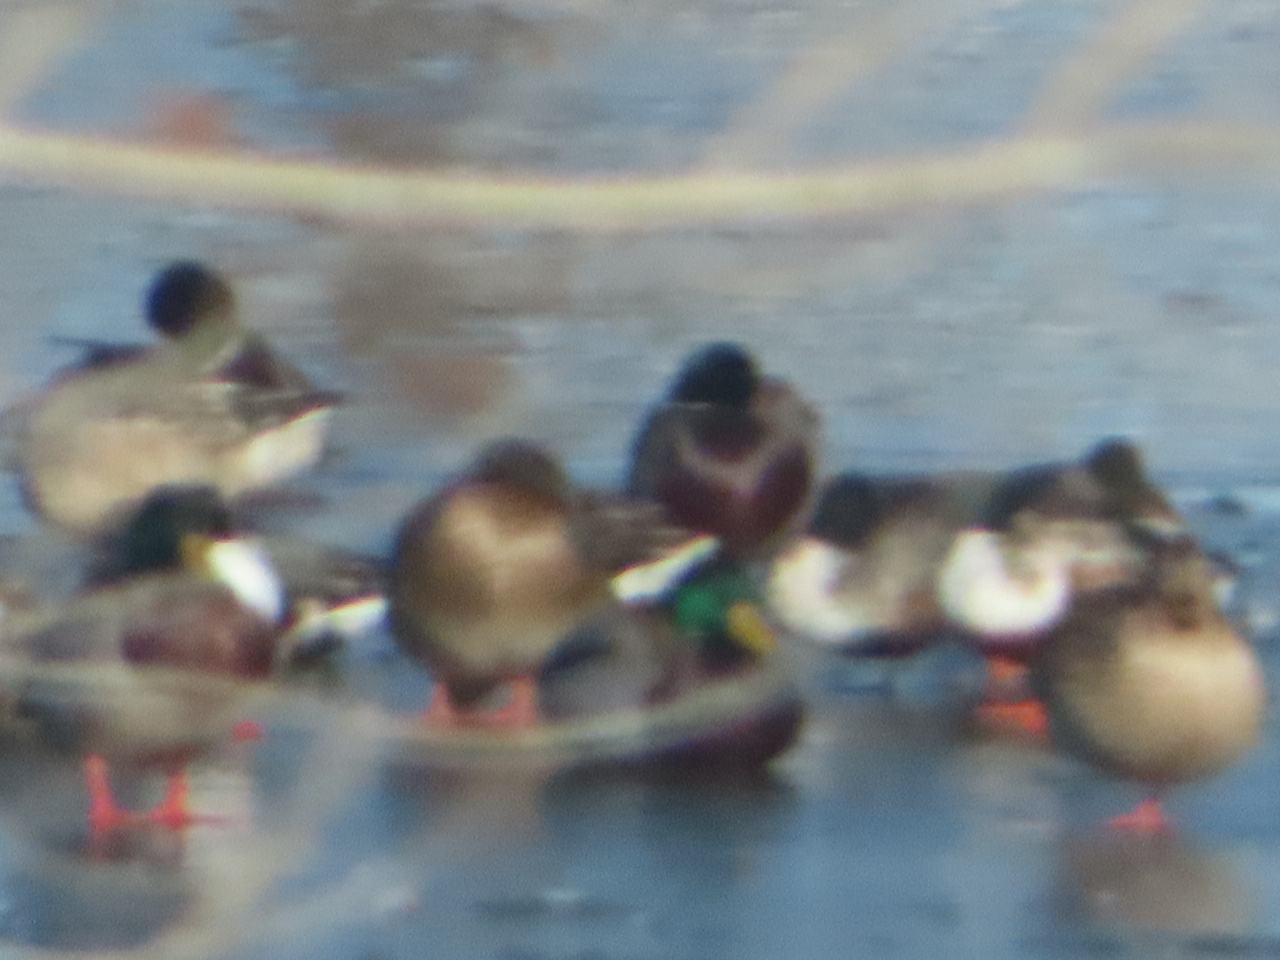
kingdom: Animalia
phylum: Chordata
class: Aves
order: Anseriformes
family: Anatidae
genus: Anas
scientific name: Anas platyrhynchos
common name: Mallard
